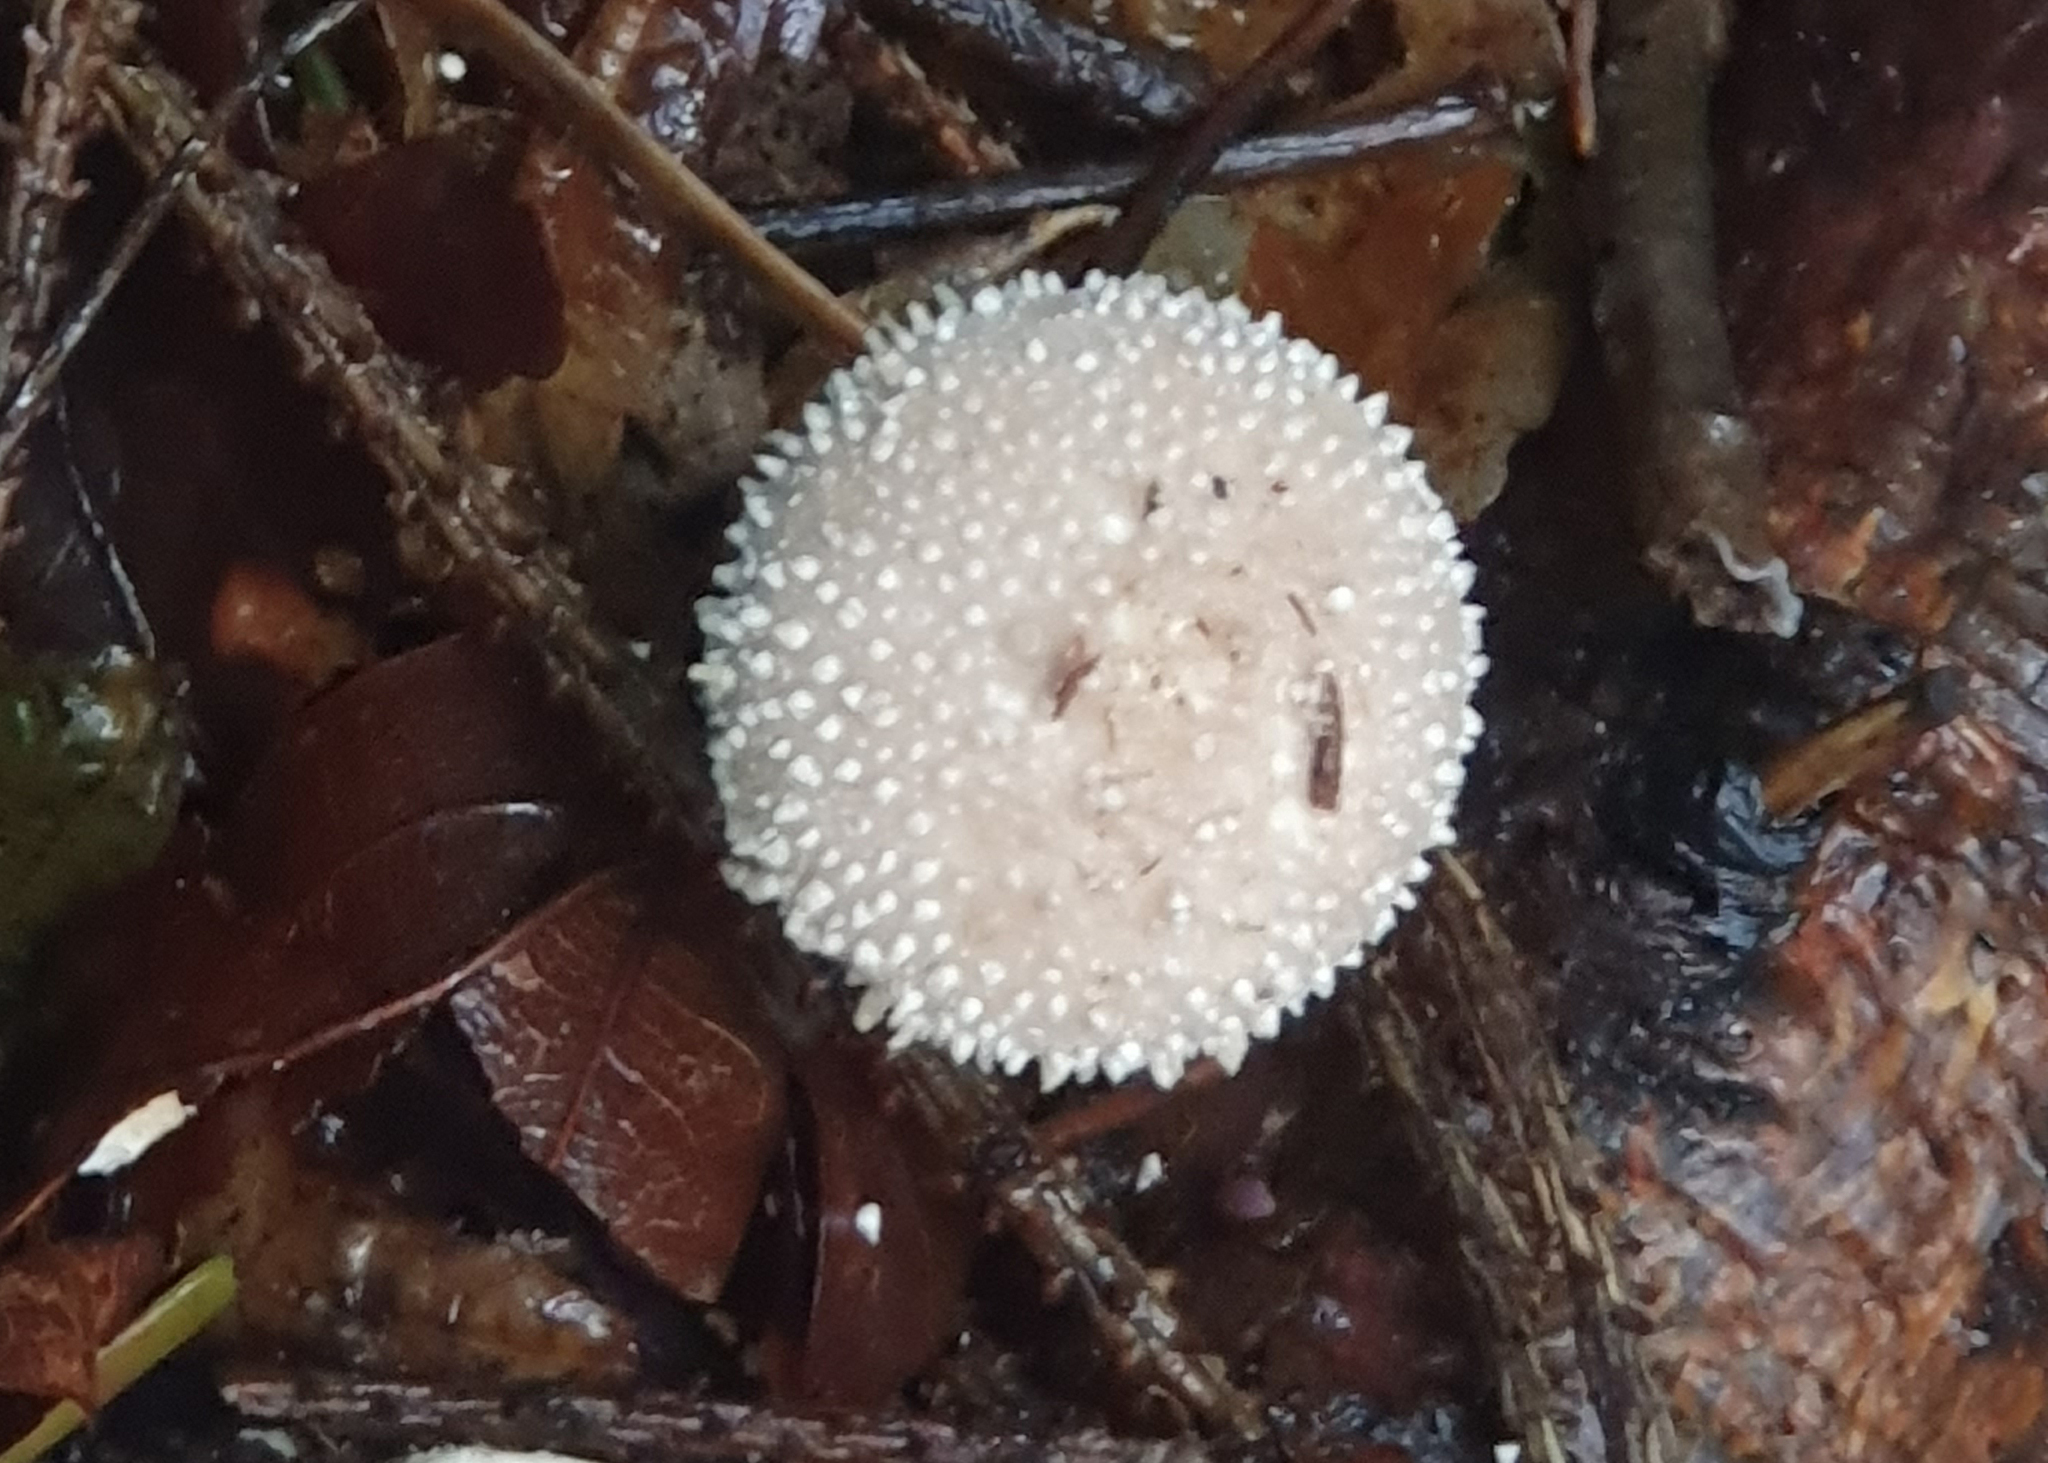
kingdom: Fungi
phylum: Basidiomycota
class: Agaricomycetes
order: Agaricales
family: Lycoperdaceae
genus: Lycoperdon
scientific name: Lycoperdon perlatum
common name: Common puffball
